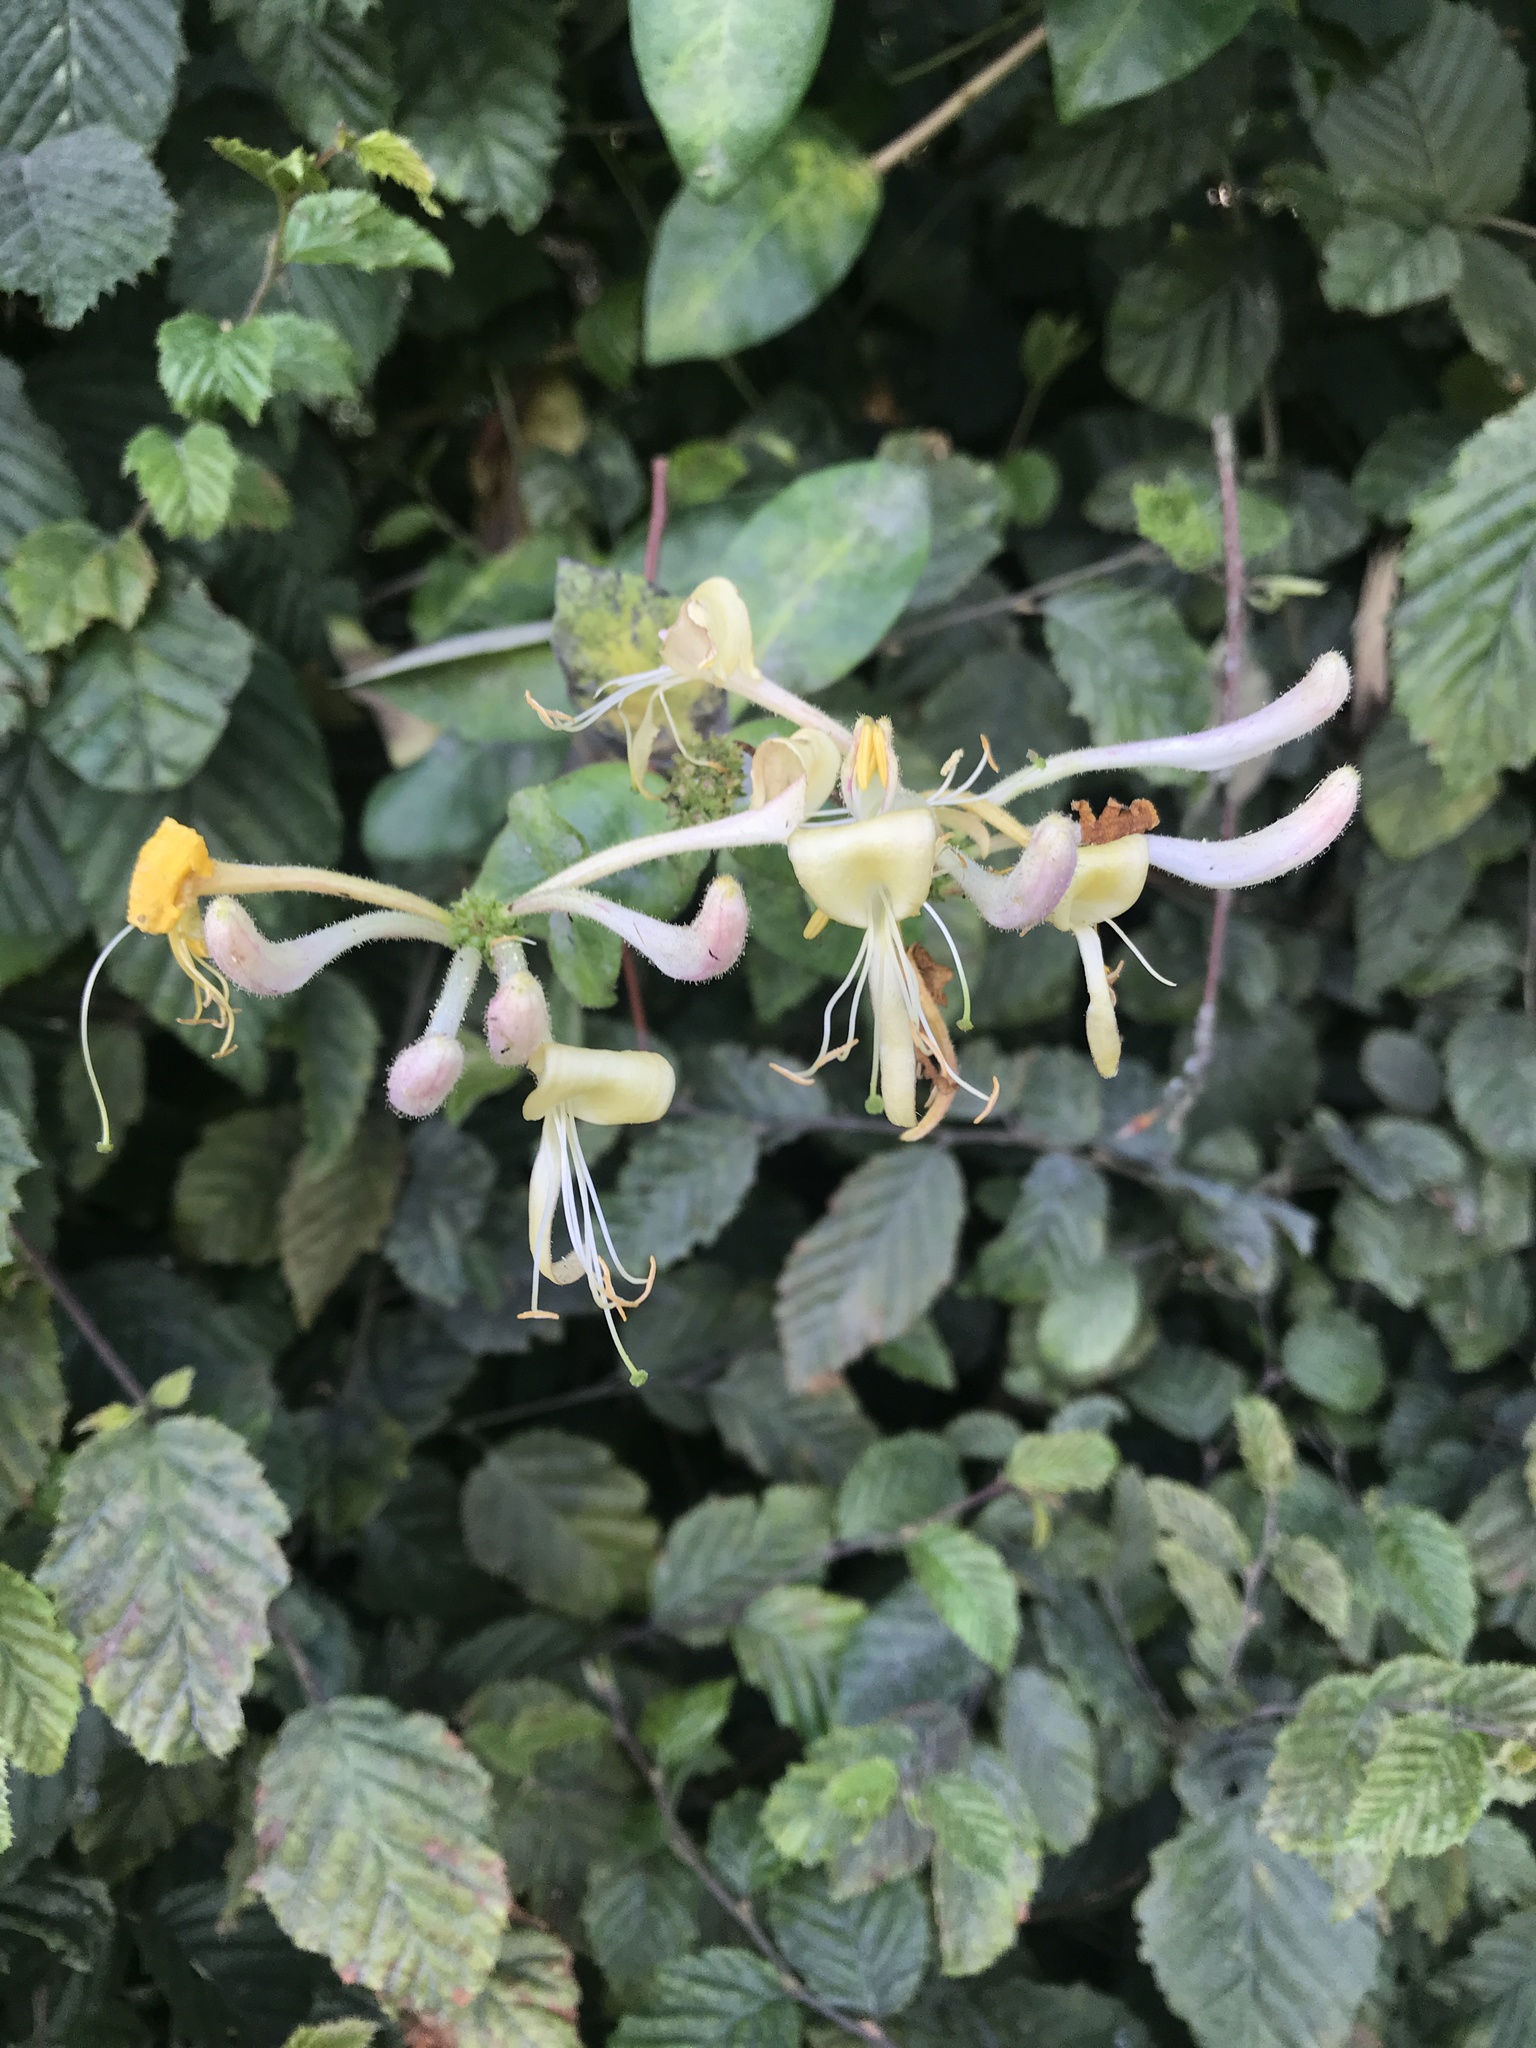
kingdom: Plantae
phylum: Tracheophyta
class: Magnoliopsida
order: Dipsacales
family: Caprifoliaceae
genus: Lonicera
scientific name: Lonicera periclymenum
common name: European honeysuckle
